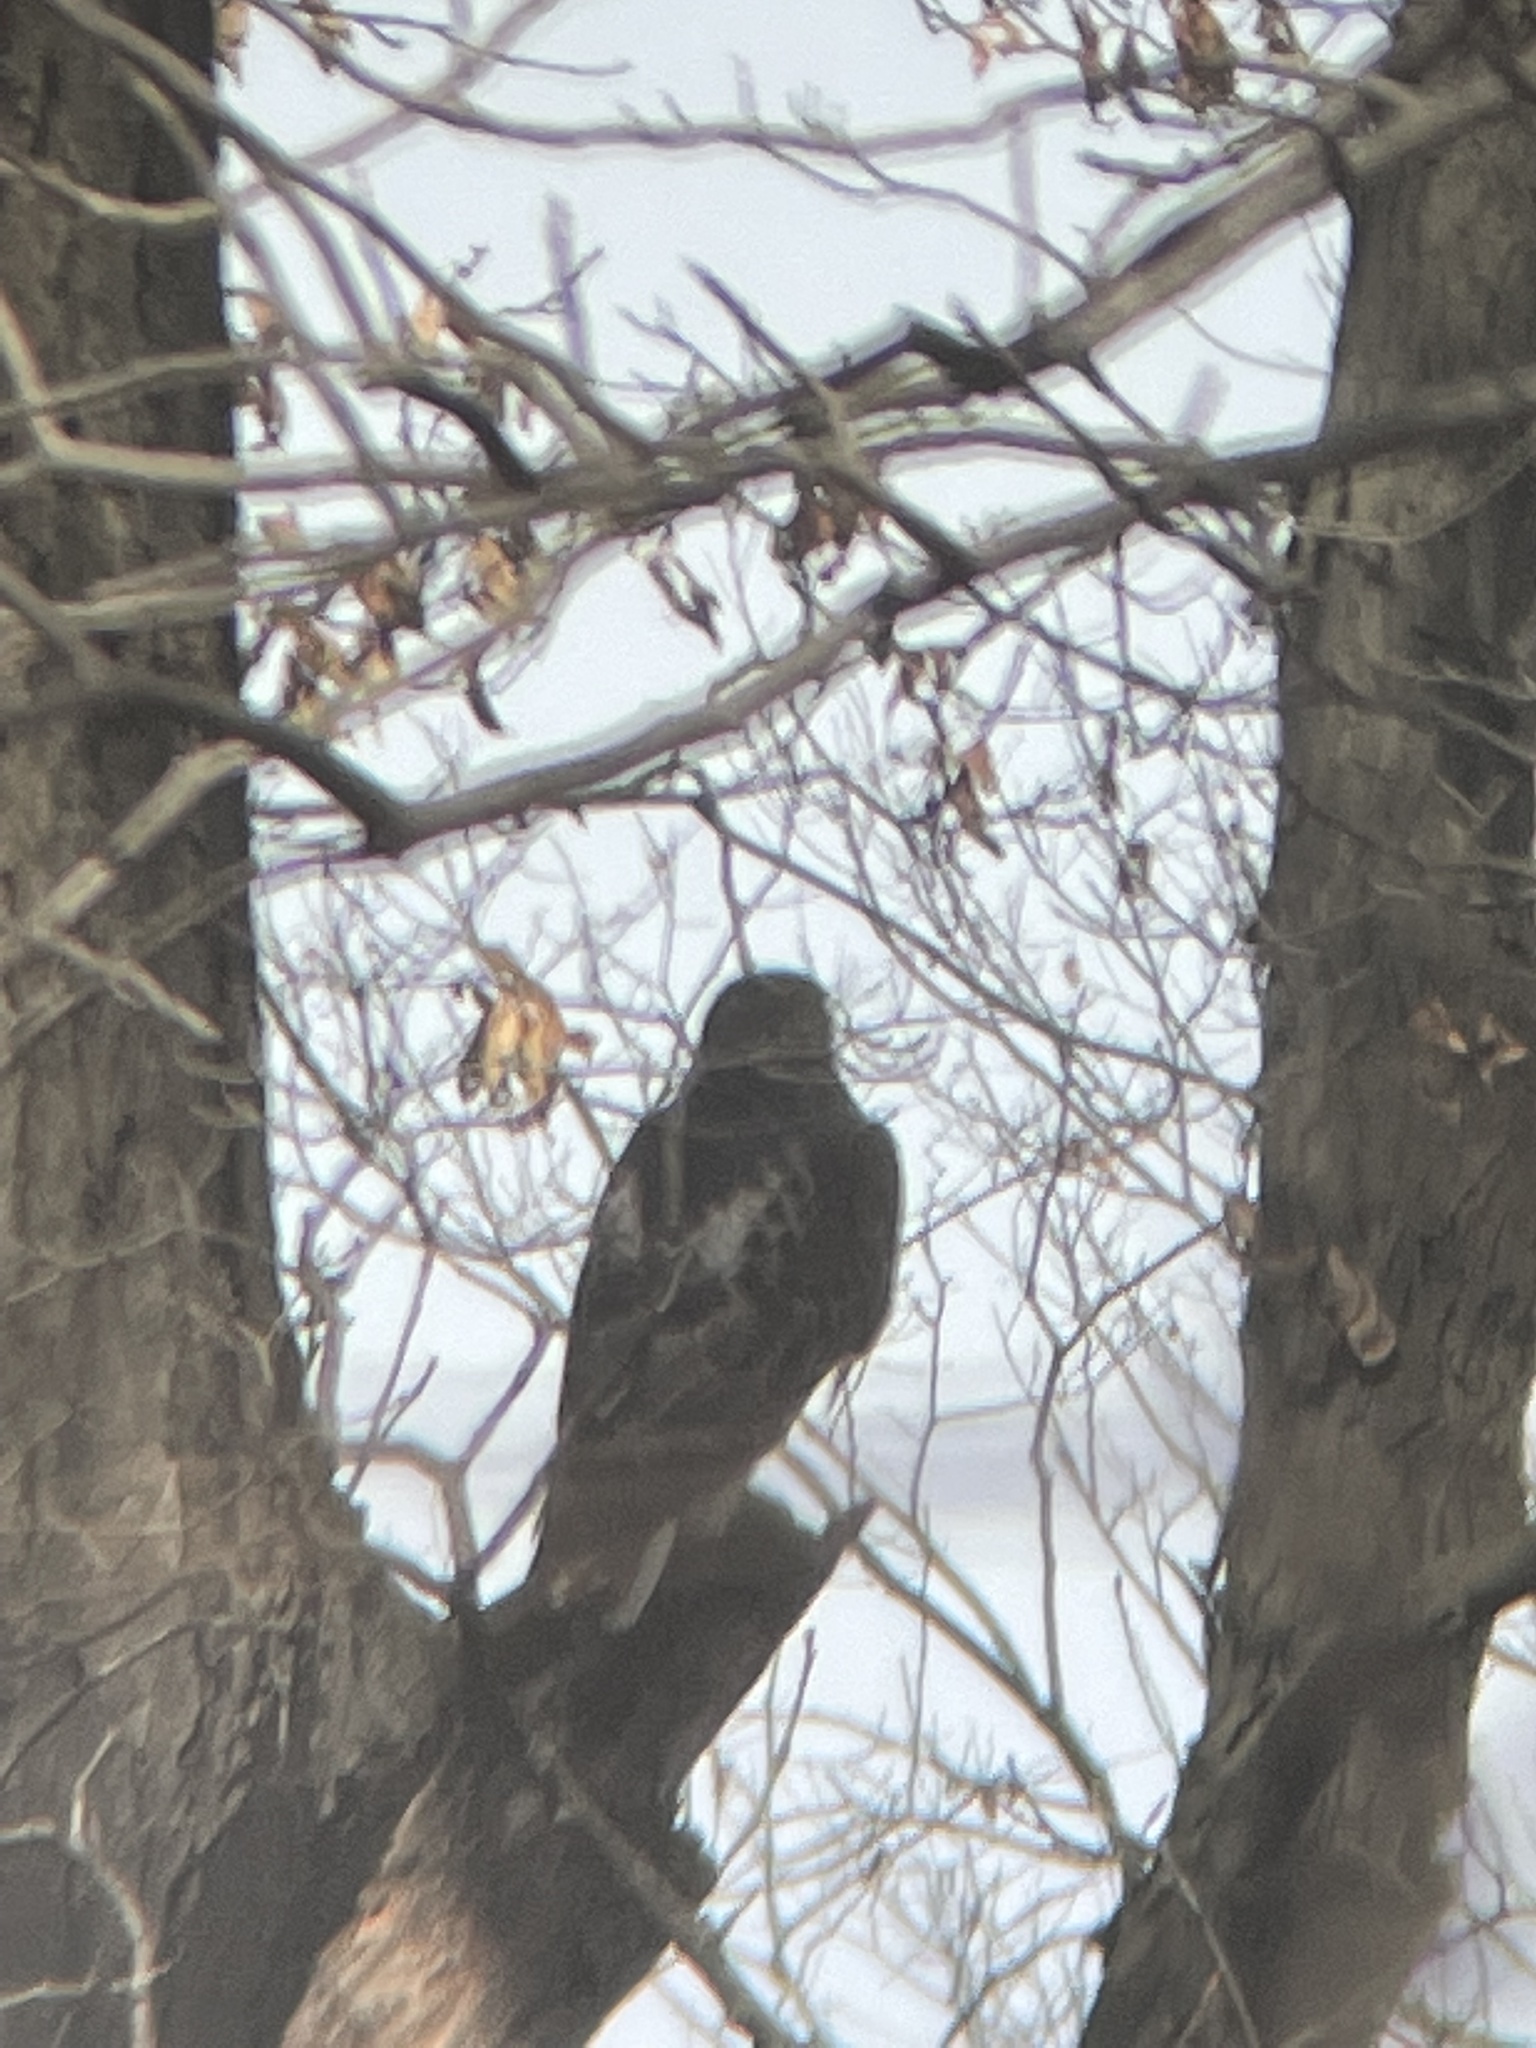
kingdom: Animalia
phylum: Chordata
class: Aves
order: Accipitriformes
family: Accipitridae
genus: Buteo
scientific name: Buteo jamaicensis
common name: Red-tailed hawk
